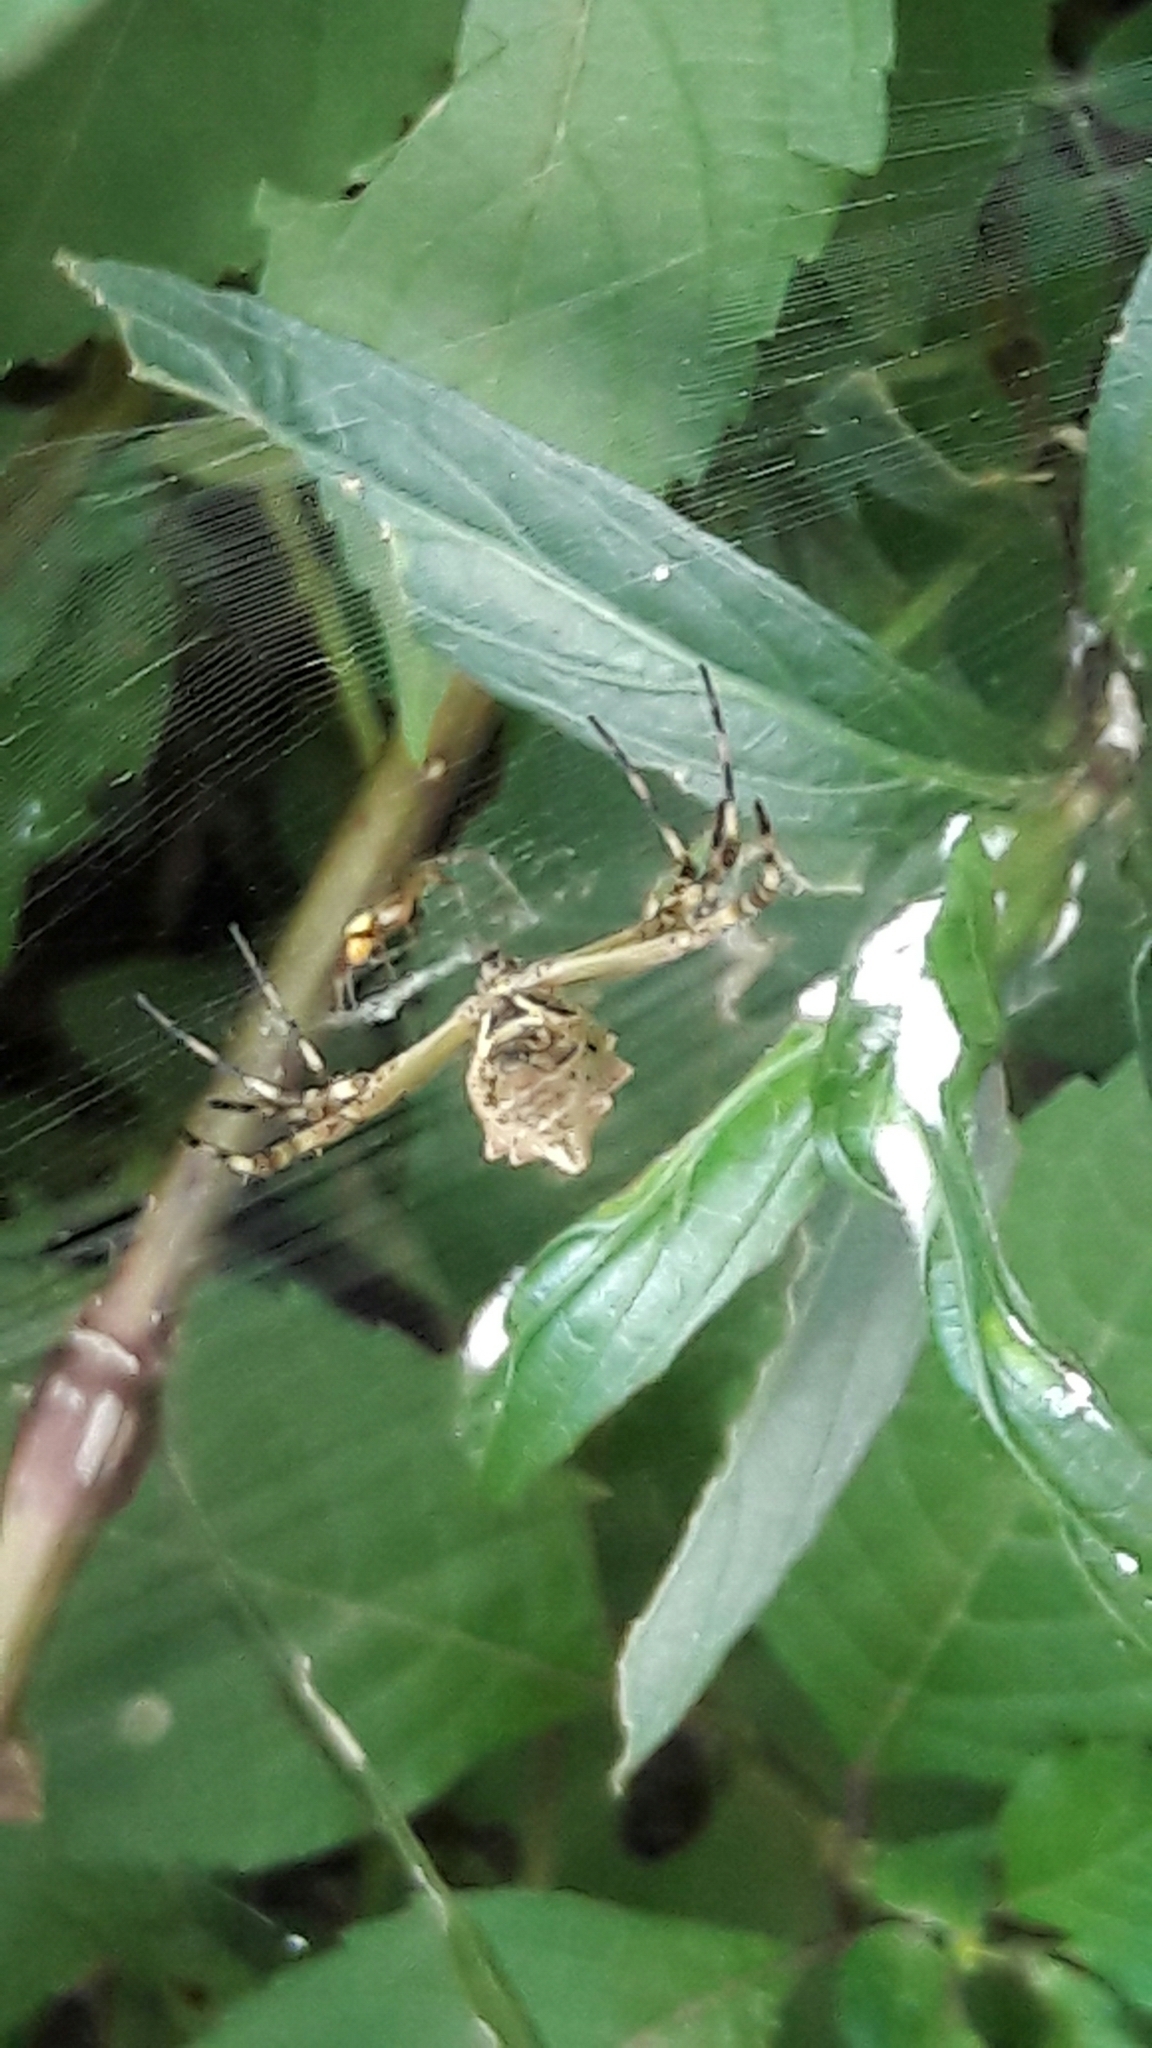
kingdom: Animalia
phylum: Arthropoda
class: Arachnida
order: Araneae
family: Araneidae
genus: Argiope
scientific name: Argiope argentata
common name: Orb weavers
